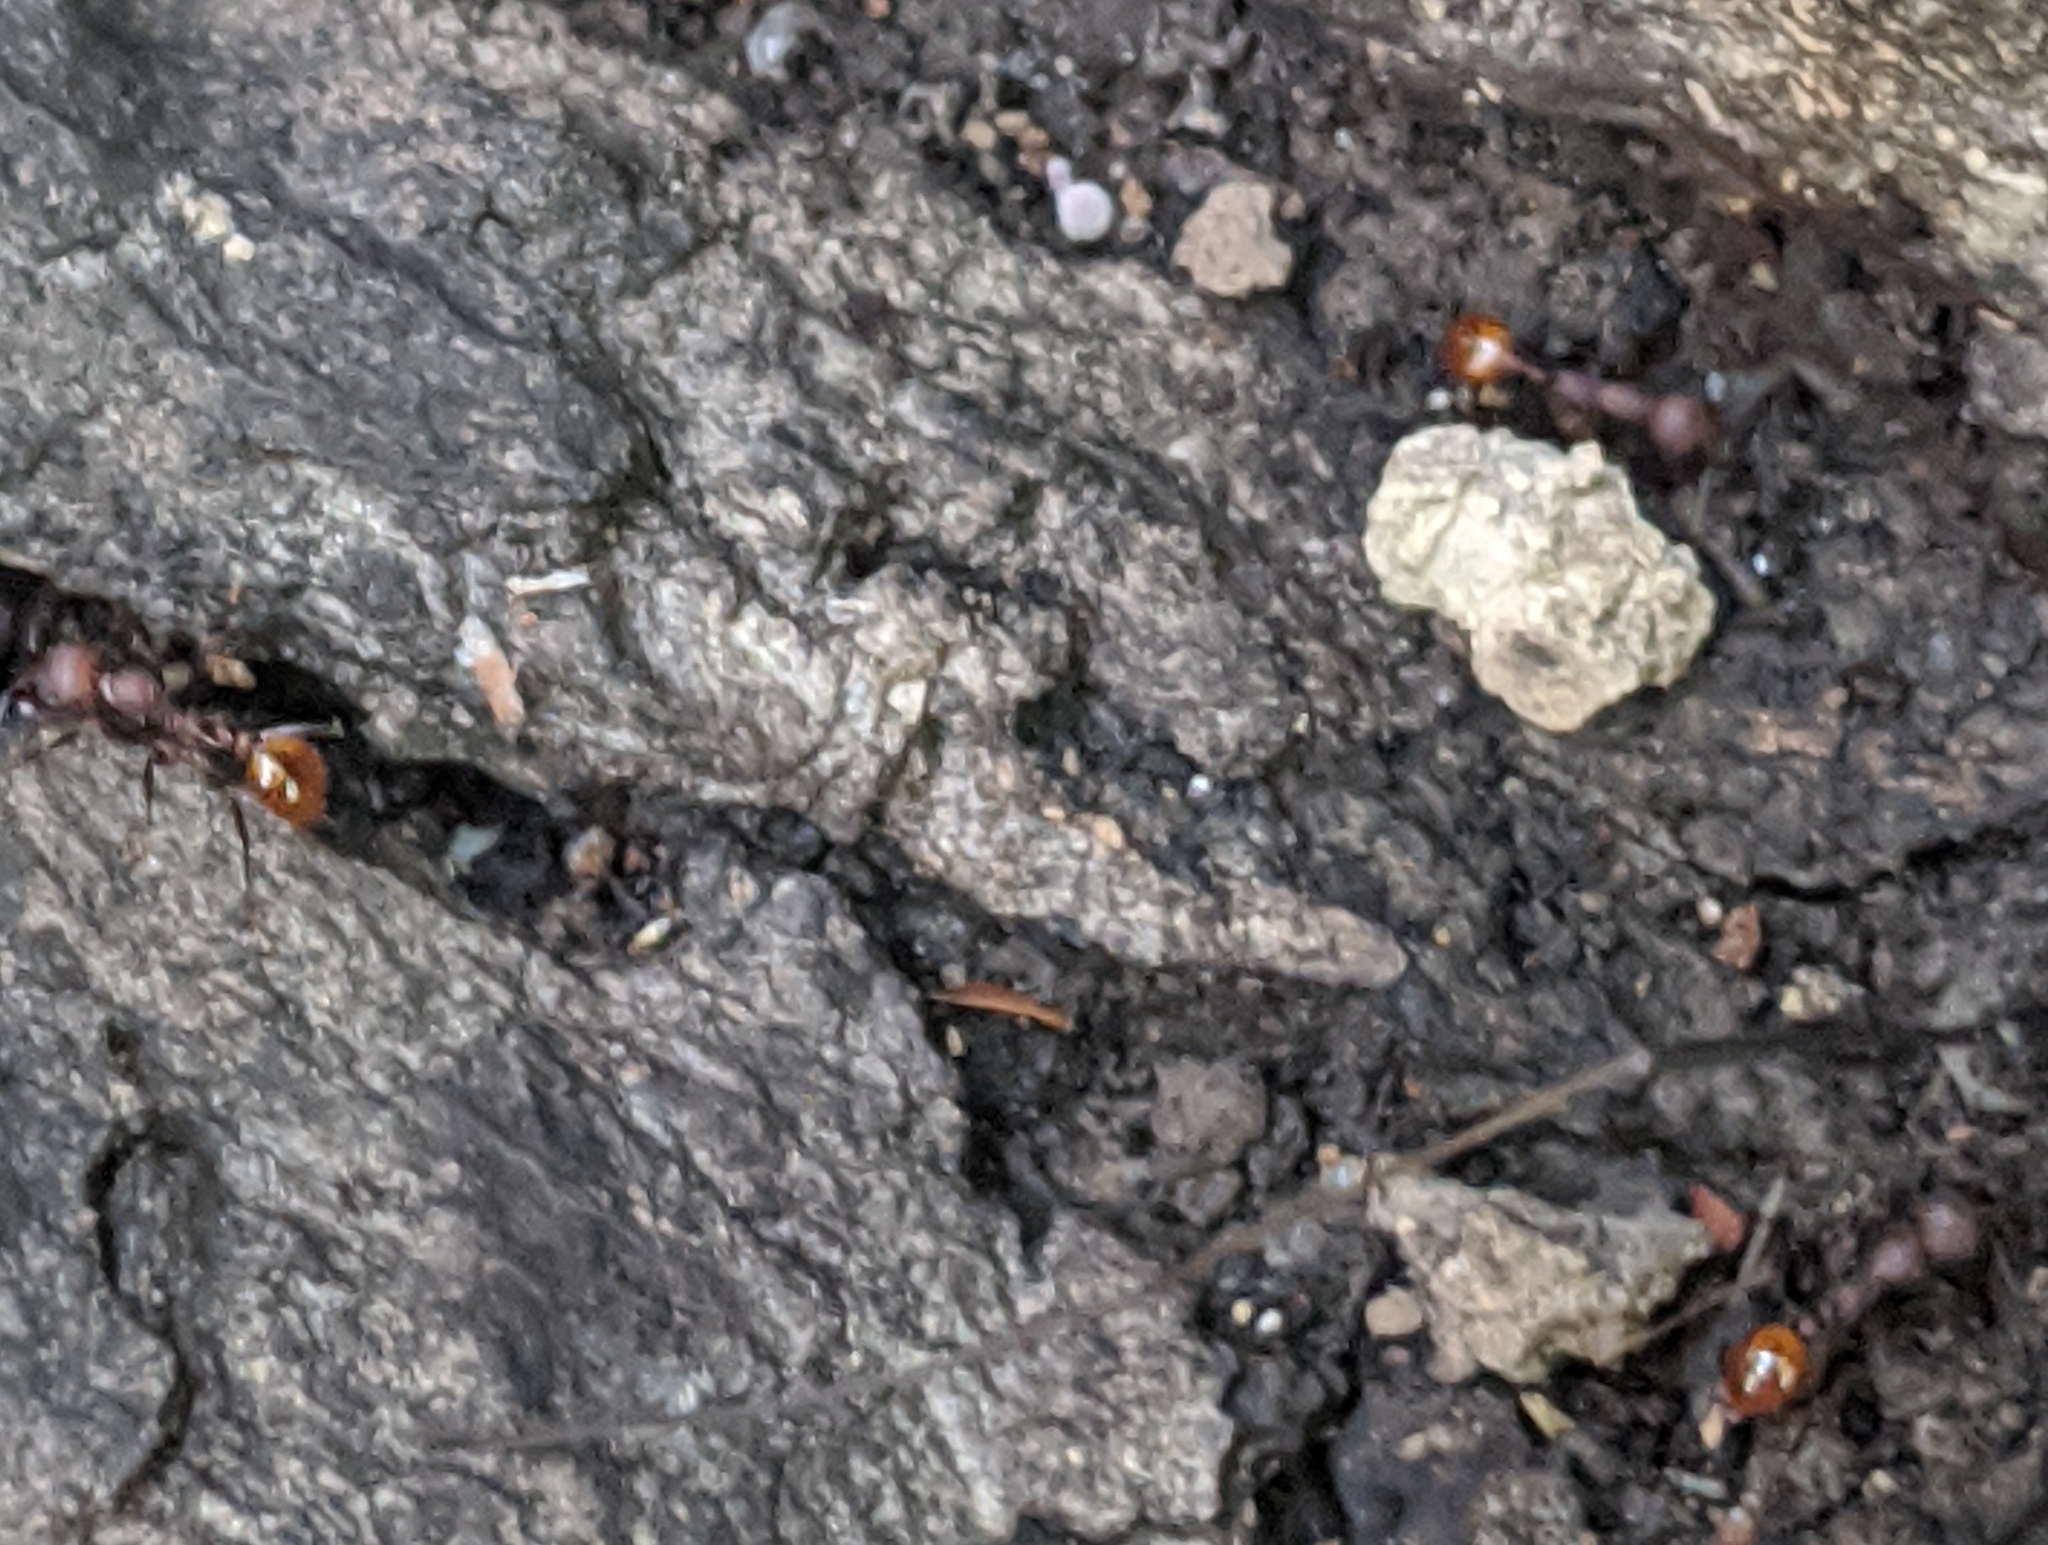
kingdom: Animalia
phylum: Arthropoda
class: Insecta
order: Hymenoptera
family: Formicidae
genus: Aphaenogaster
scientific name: Aphaenogaster tennesseensis
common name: Tennessee thread-waisted ant
